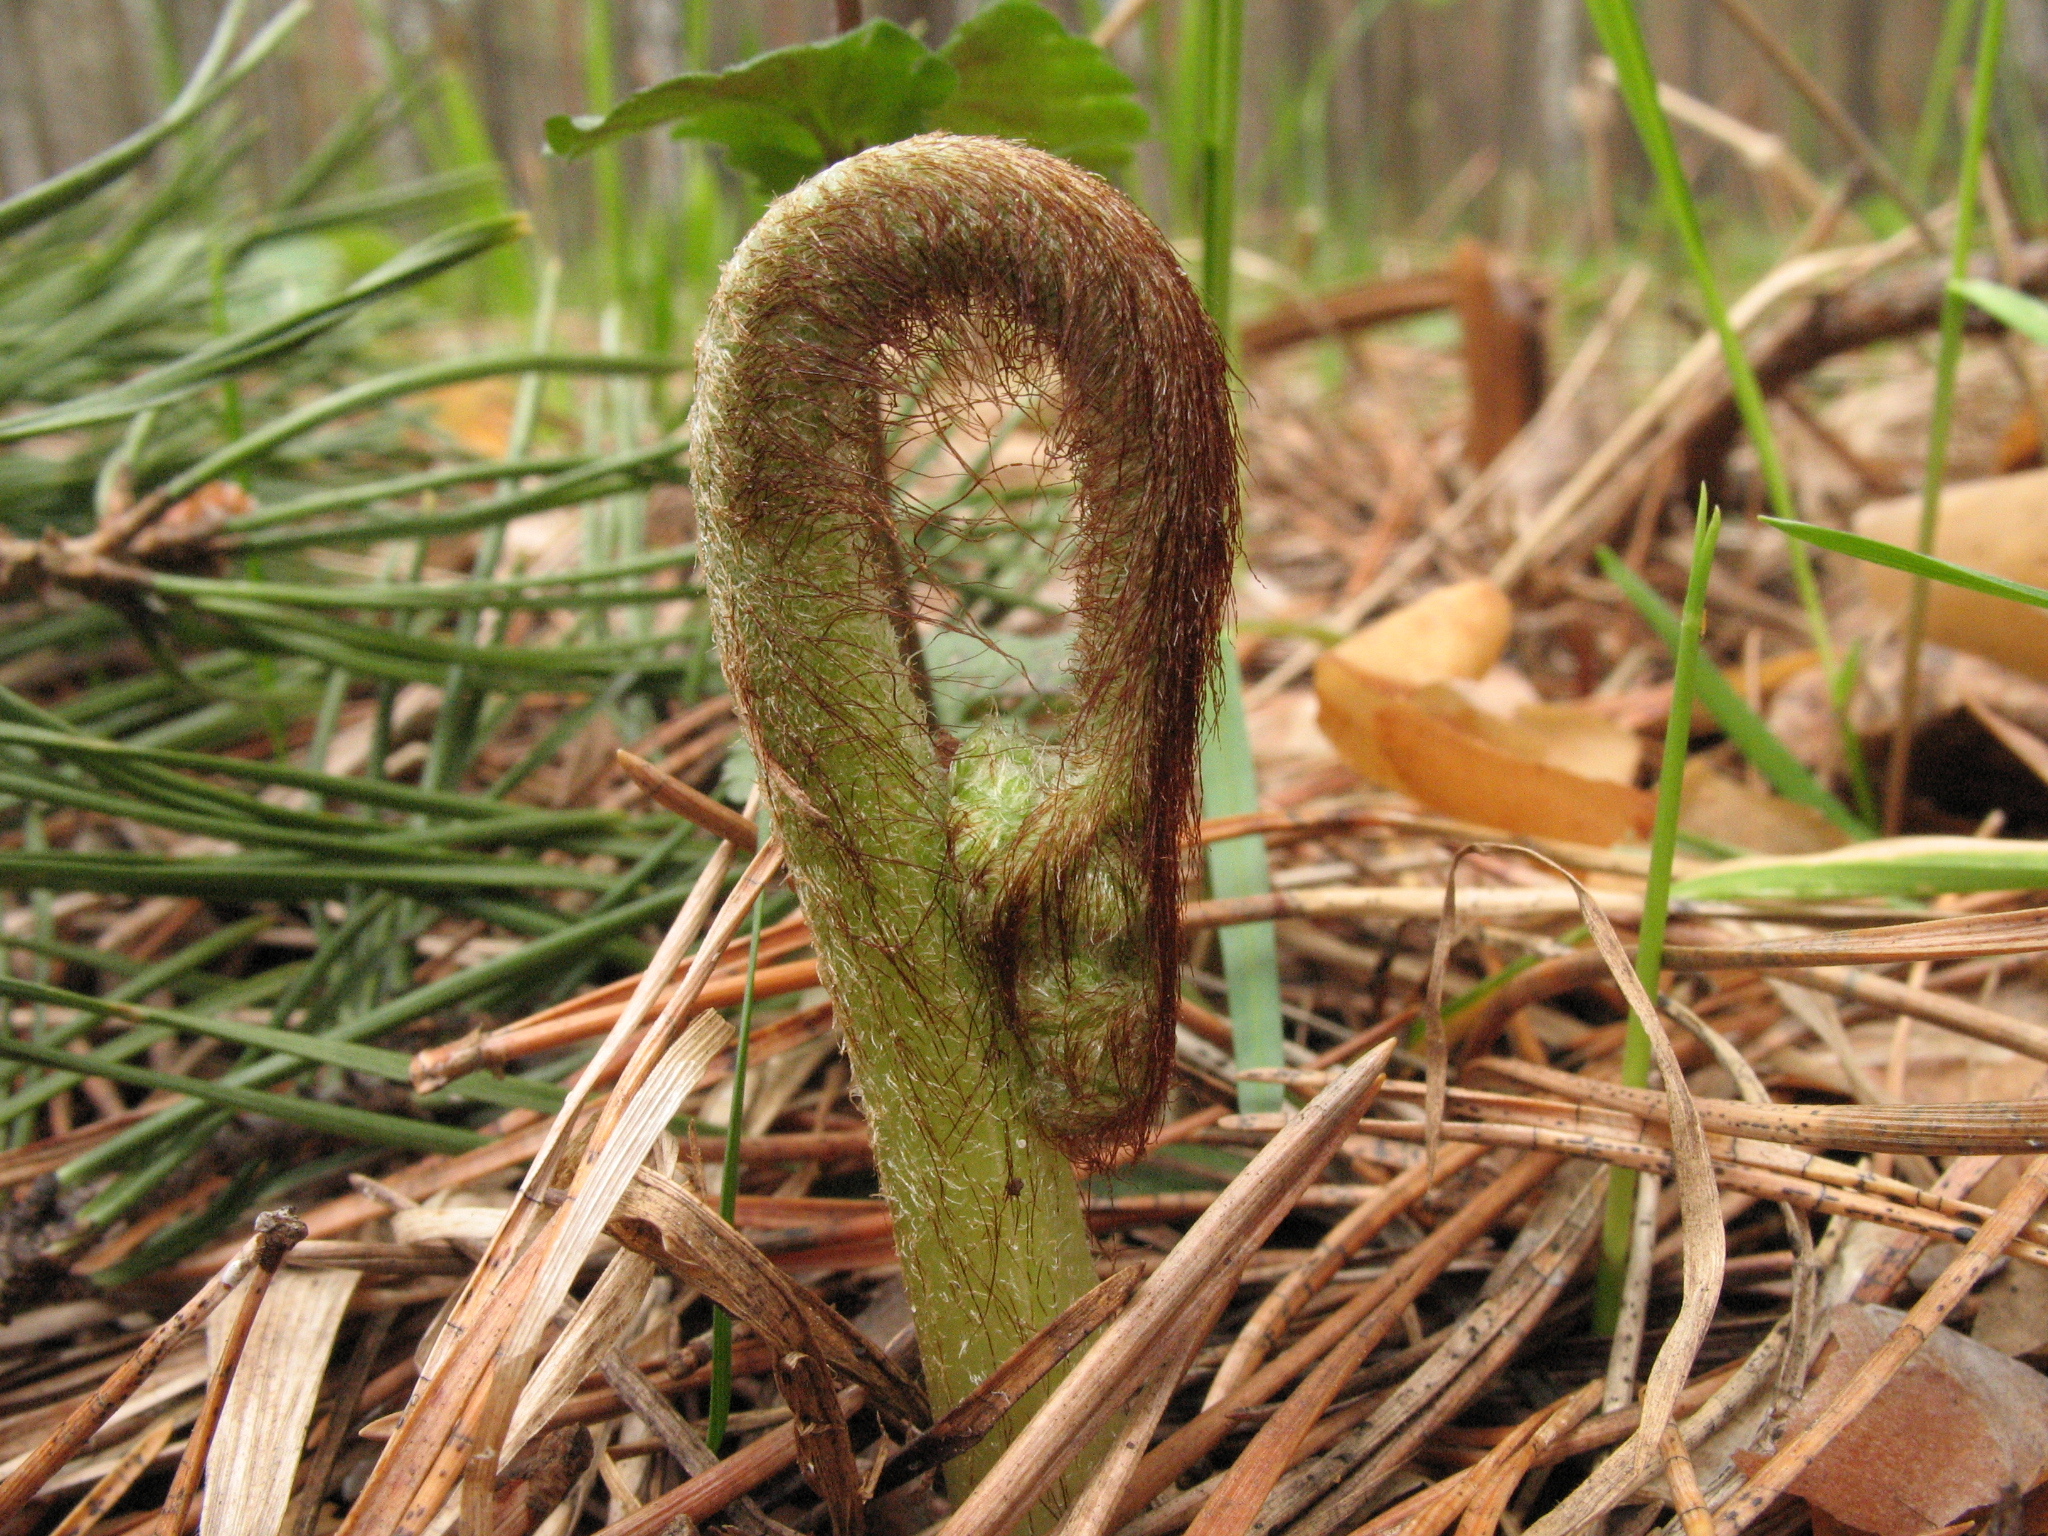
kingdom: Plantae
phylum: Tracheophyta
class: Polypodiopsida
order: Polypodiales
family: Dennstaedtiaceae
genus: Pteridium
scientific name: Pteridium aquilinum
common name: Bracken
